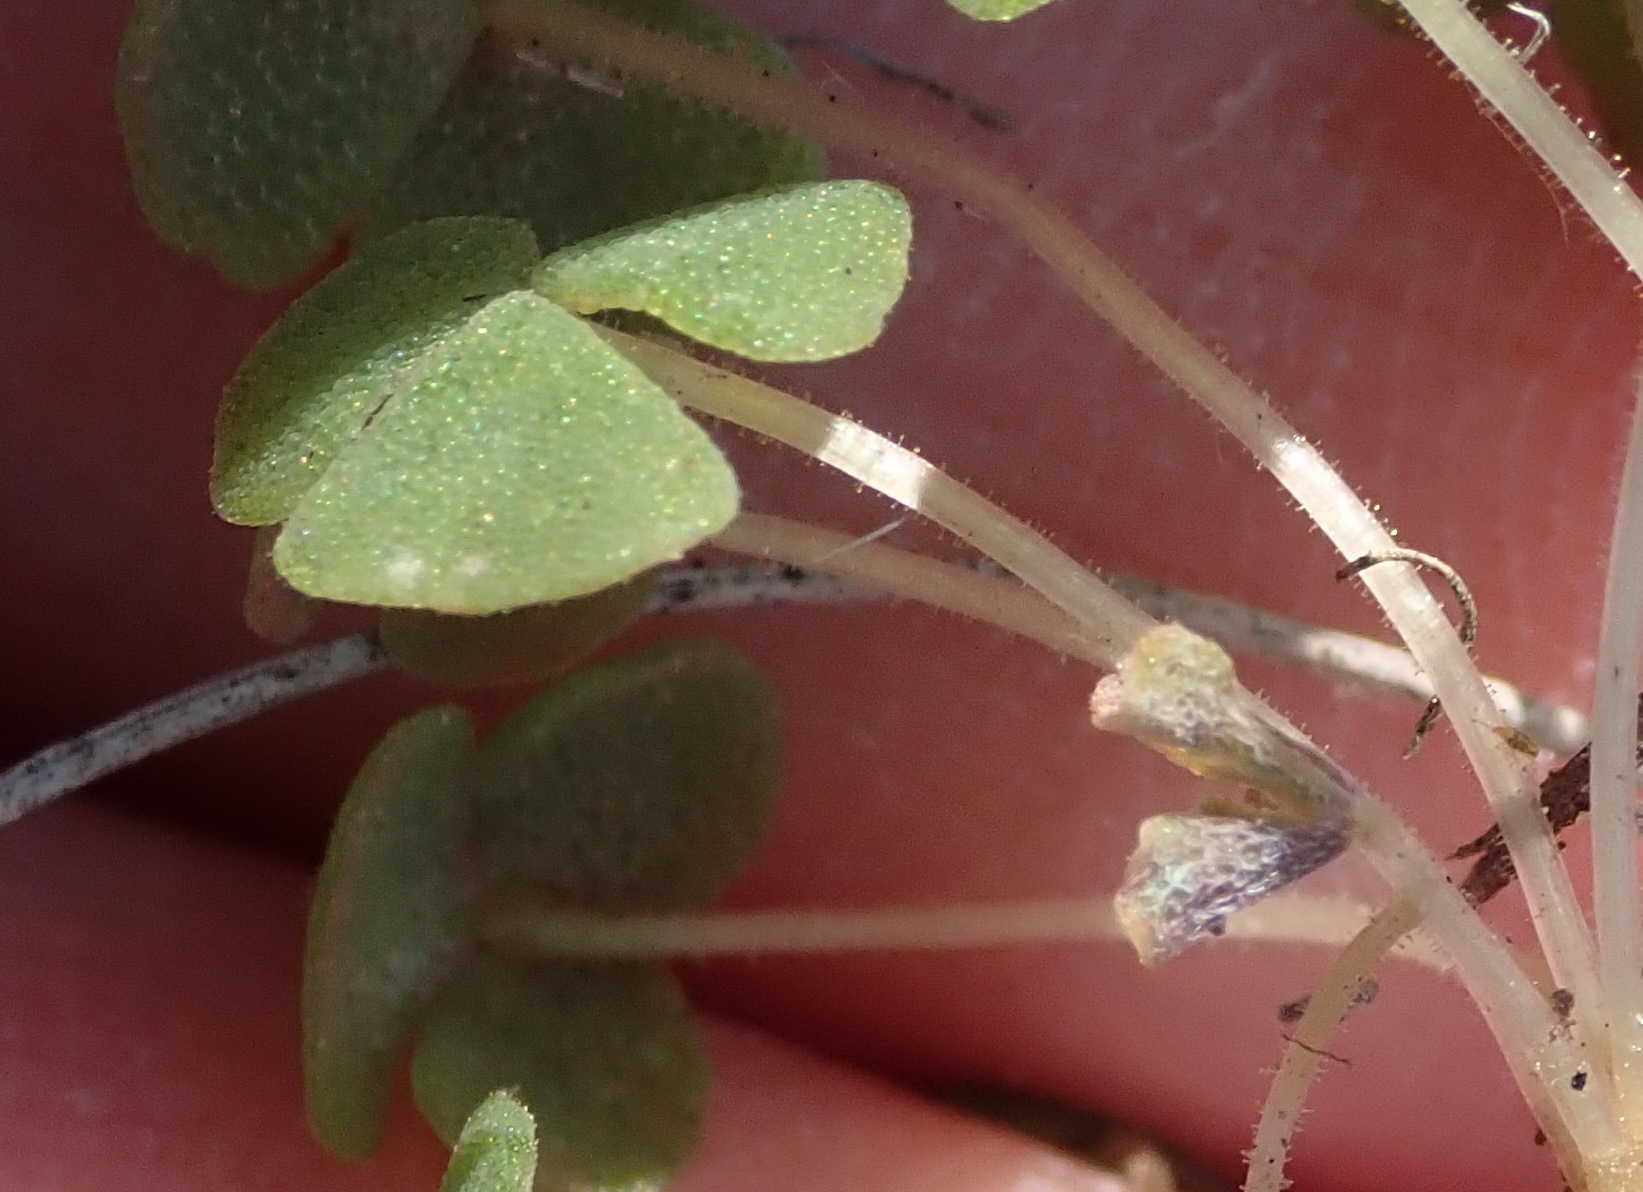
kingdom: Plantae
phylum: Tracheophyta
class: Magnoliopsida
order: Oxalidales
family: Oxalidaceae
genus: Oxalis
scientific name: Oxalis fergusoniae
